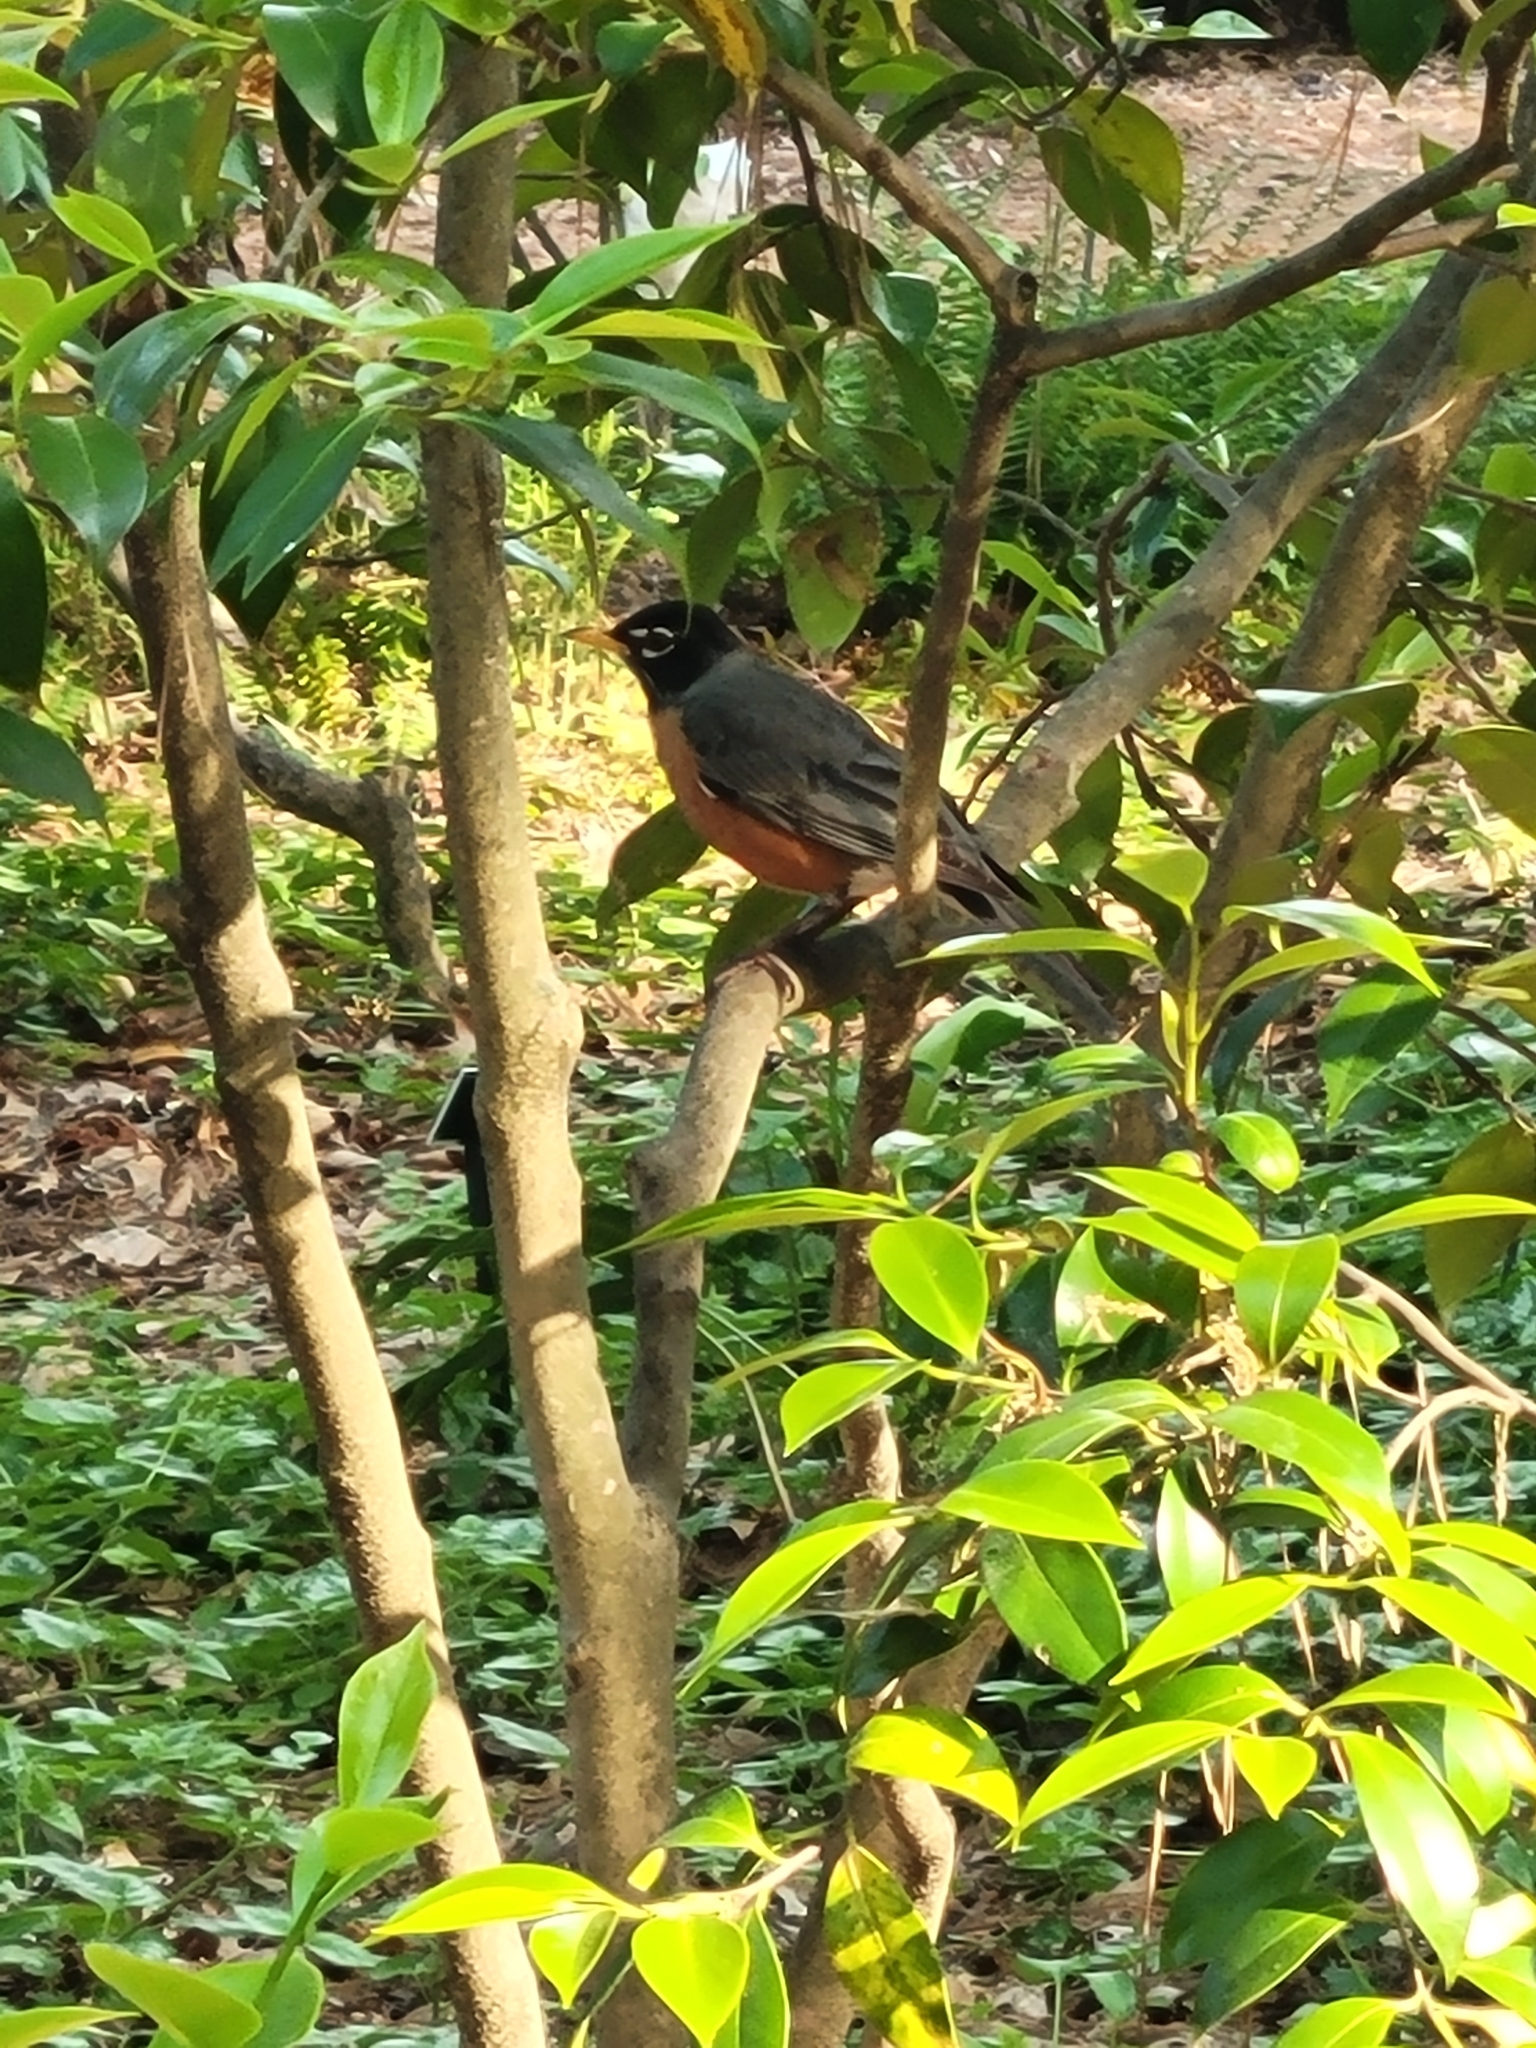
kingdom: Animalia
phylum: Chordata
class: Aves
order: Passeriformes
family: Turdidae
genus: Turdus
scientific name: Turdus migratorius
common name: American robin
